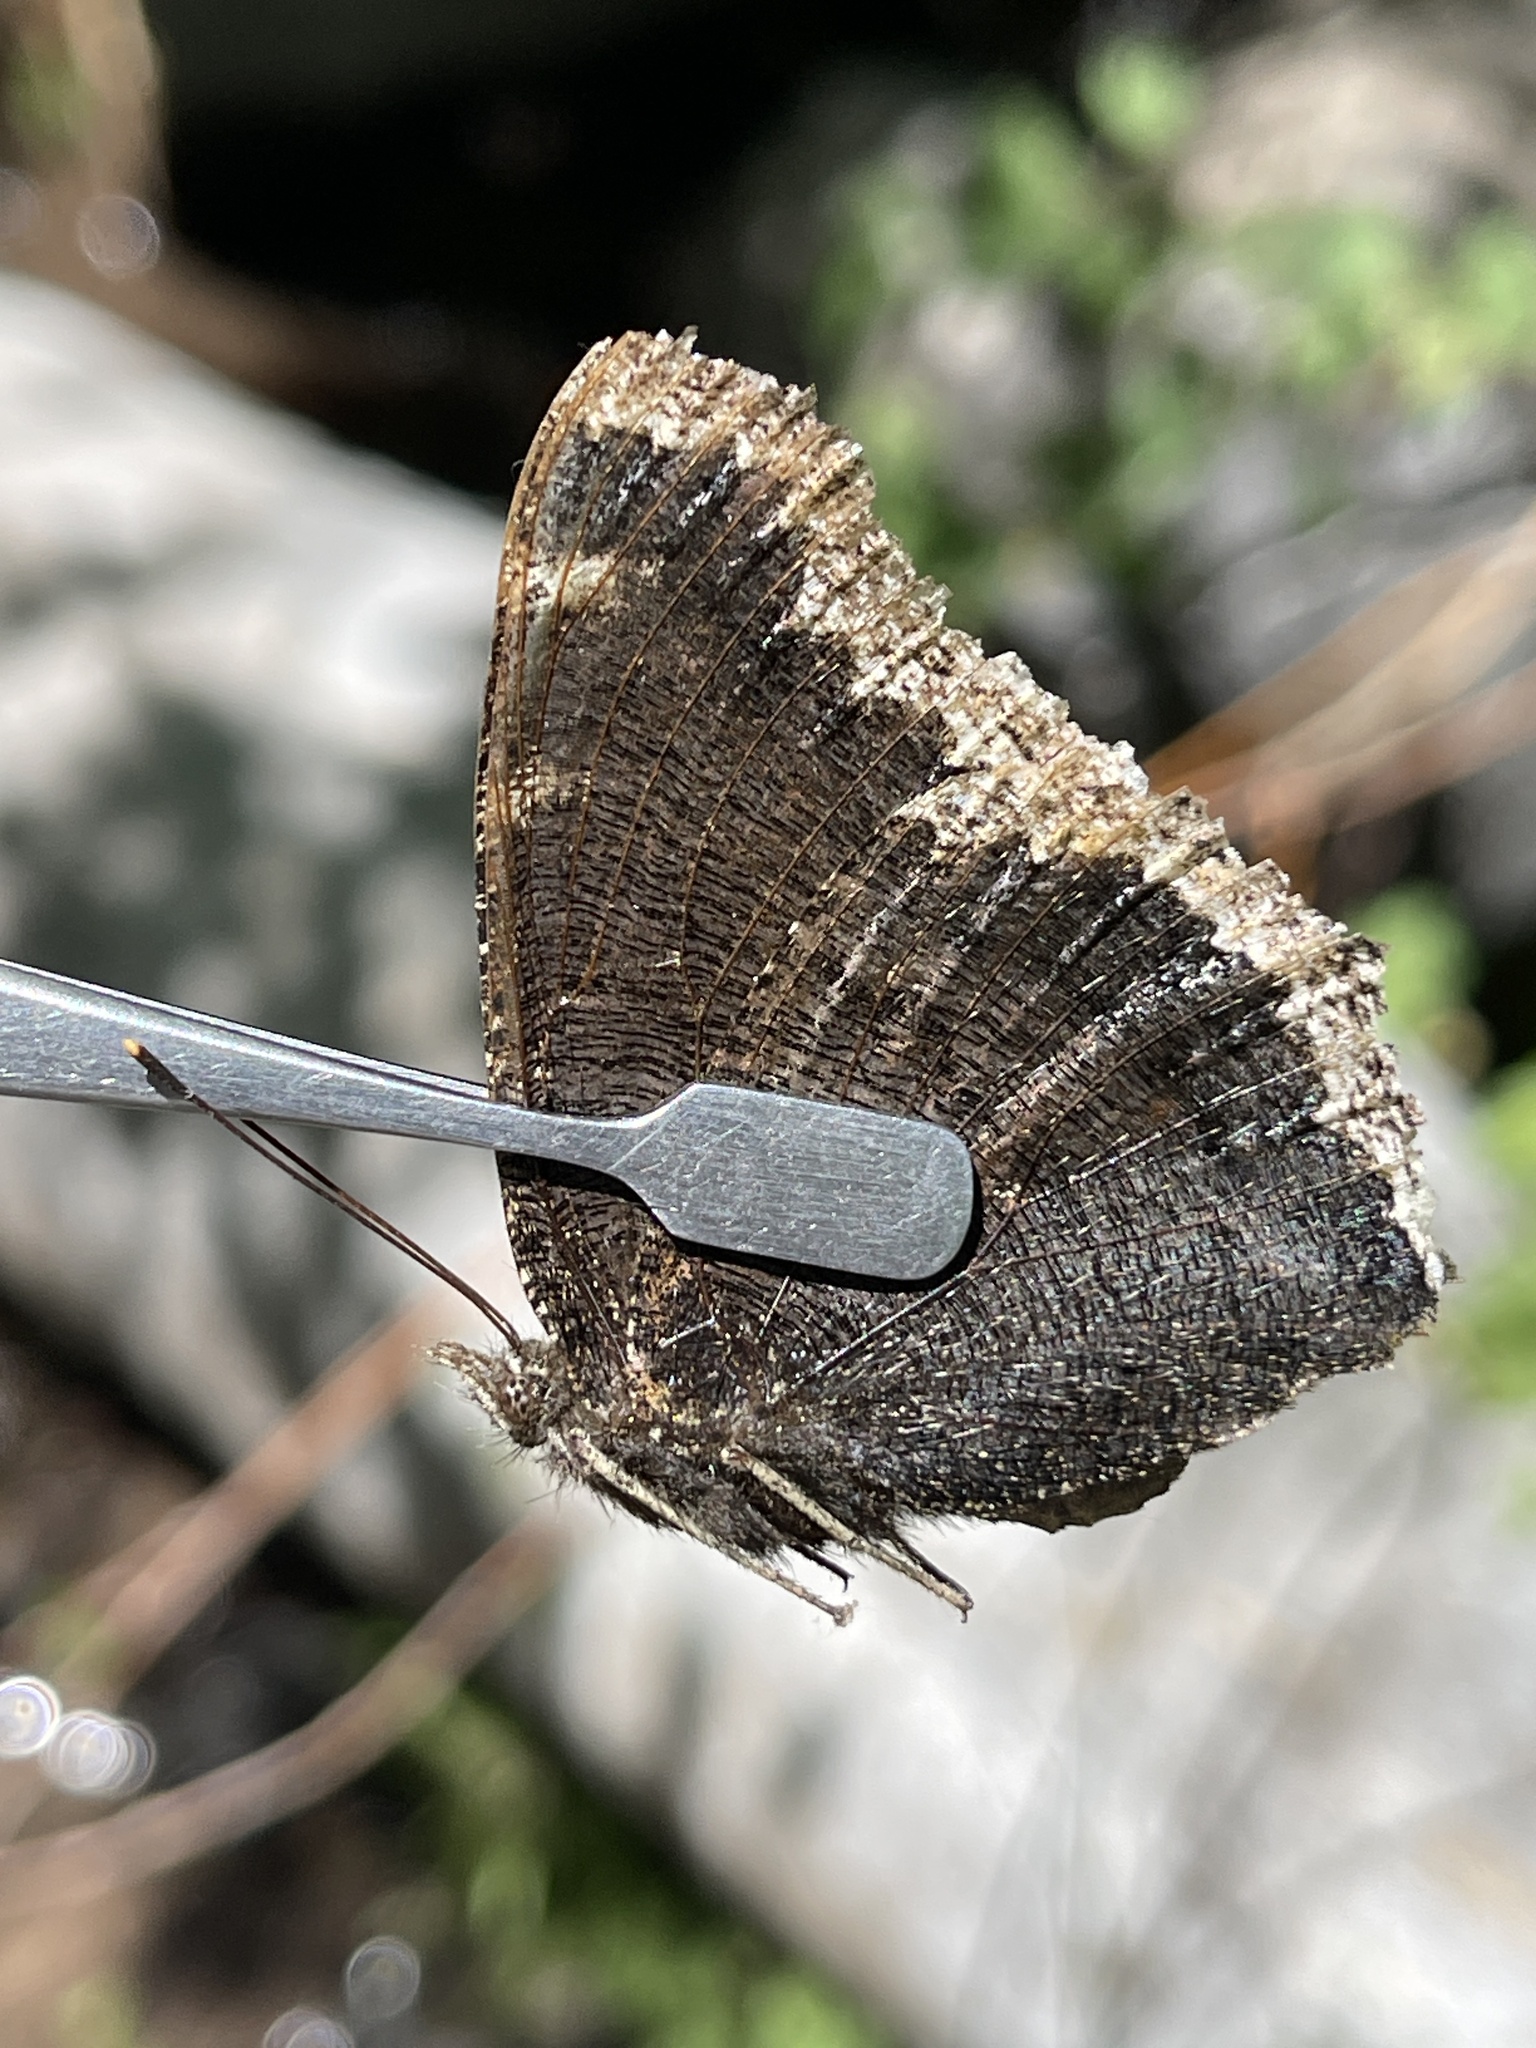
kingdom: Animalia
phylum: Arthropoda
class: Insecta
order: Lepidoptera
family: Nymphalidae
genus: Nymphalis
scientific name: Nymphalis antiopa
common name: Camberwell beauty
